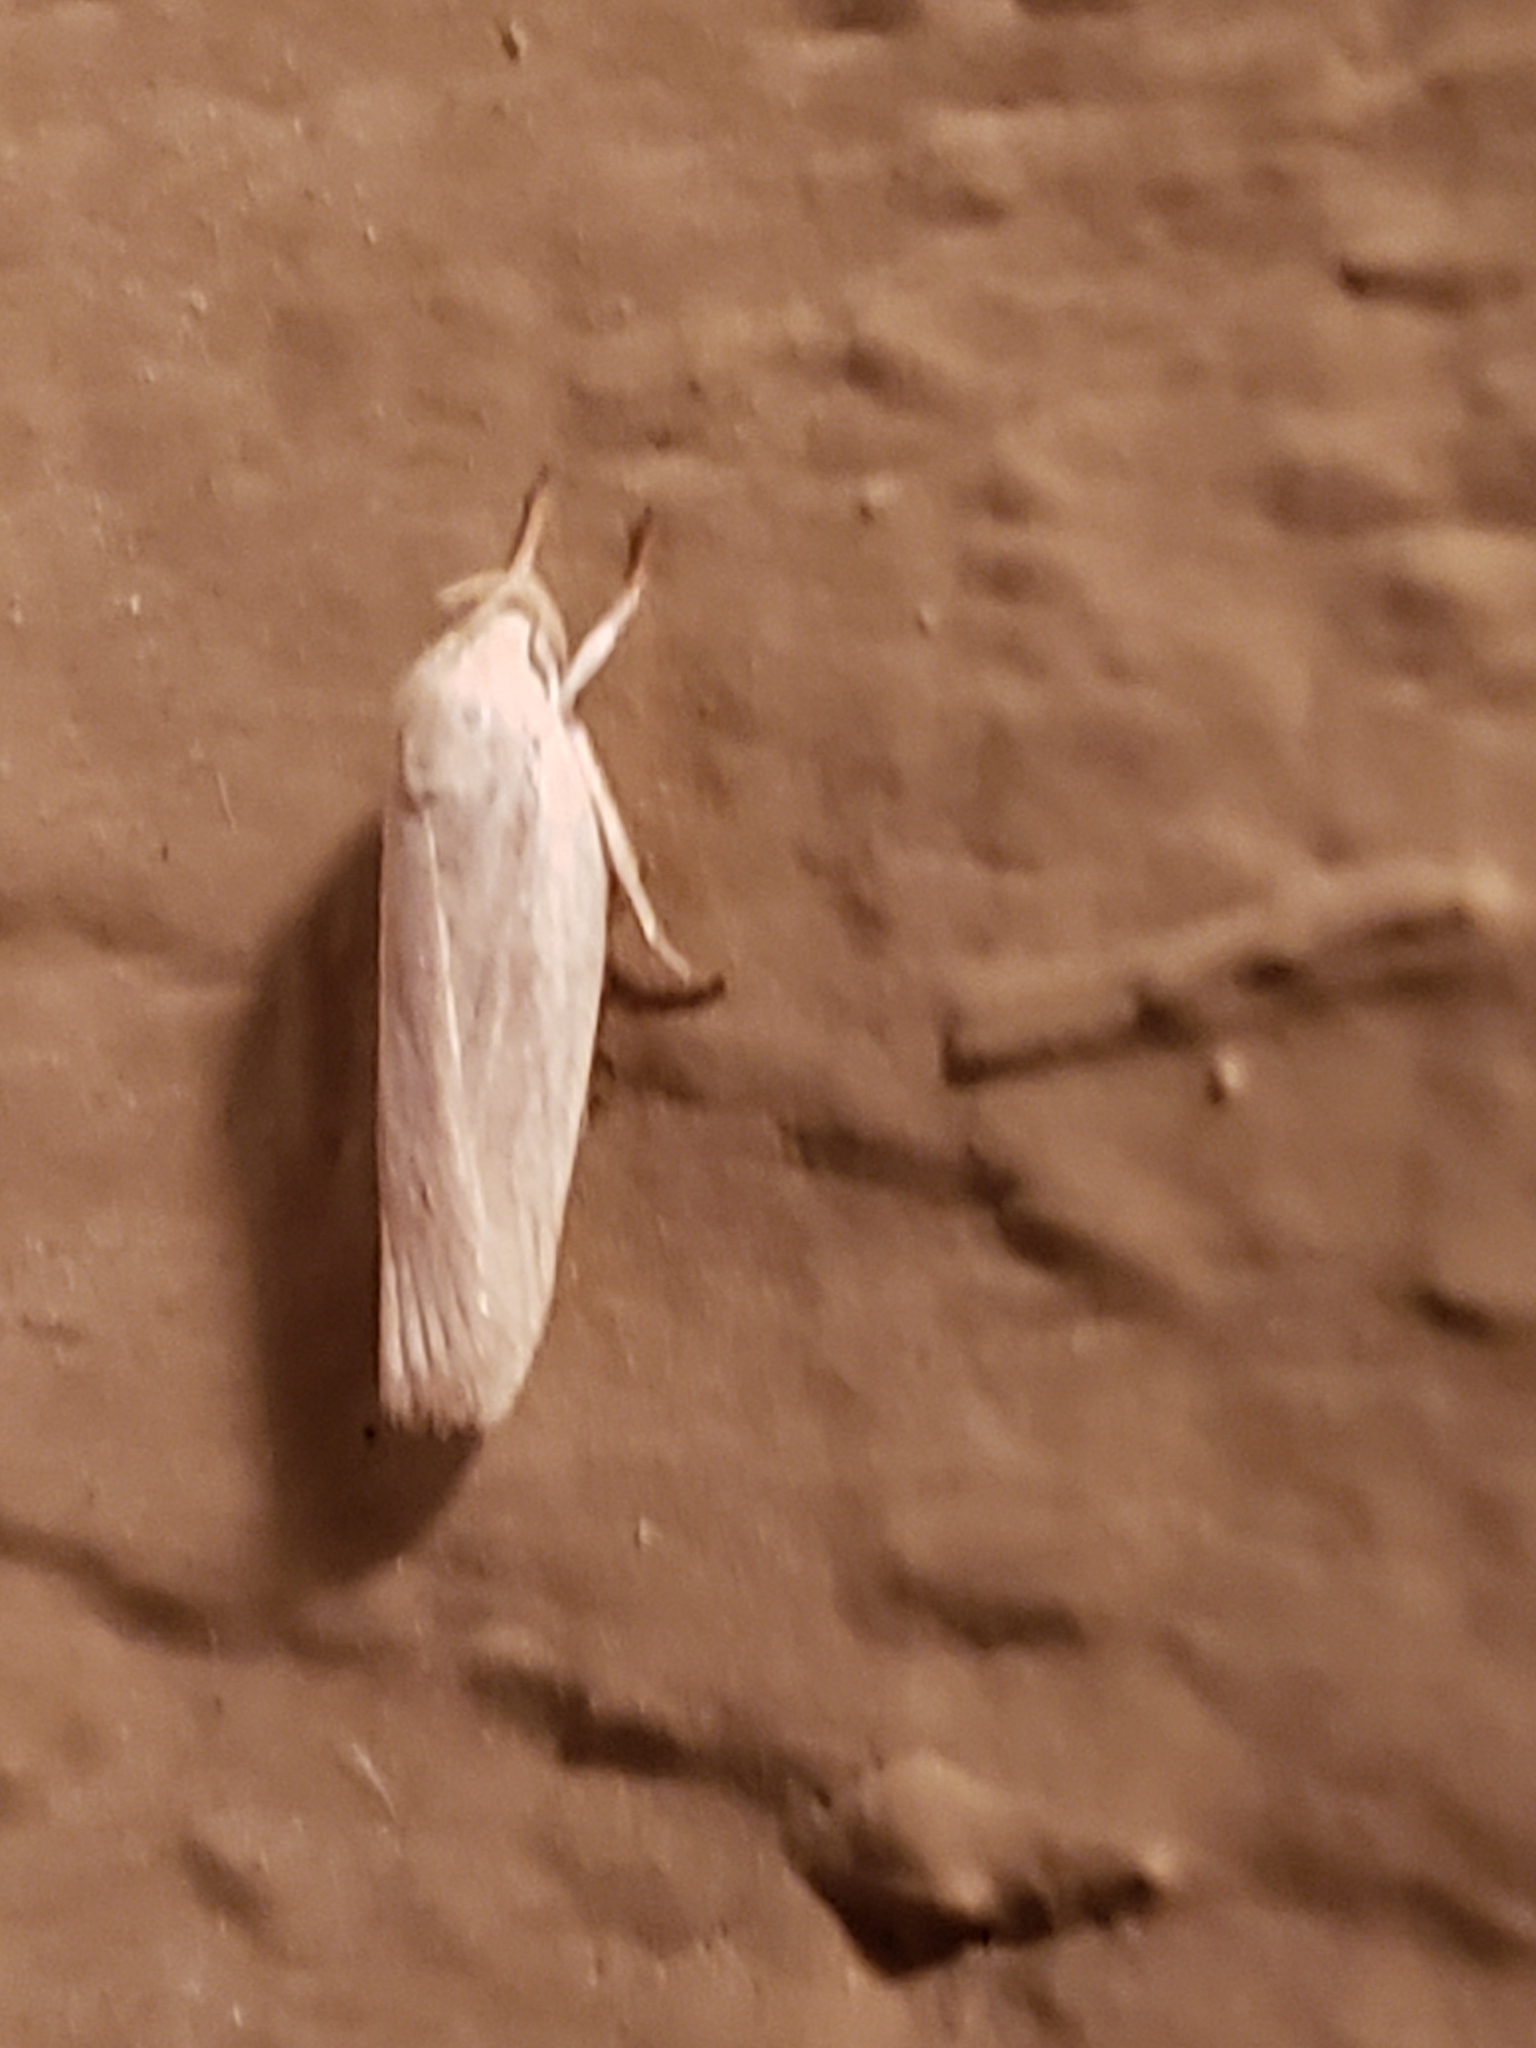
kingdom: Animalia
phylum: Arthropoda
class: Insecta
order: Lepidoptera
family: Depressariidae
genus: Antaeotricha
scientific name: Antaeotricha albulella
